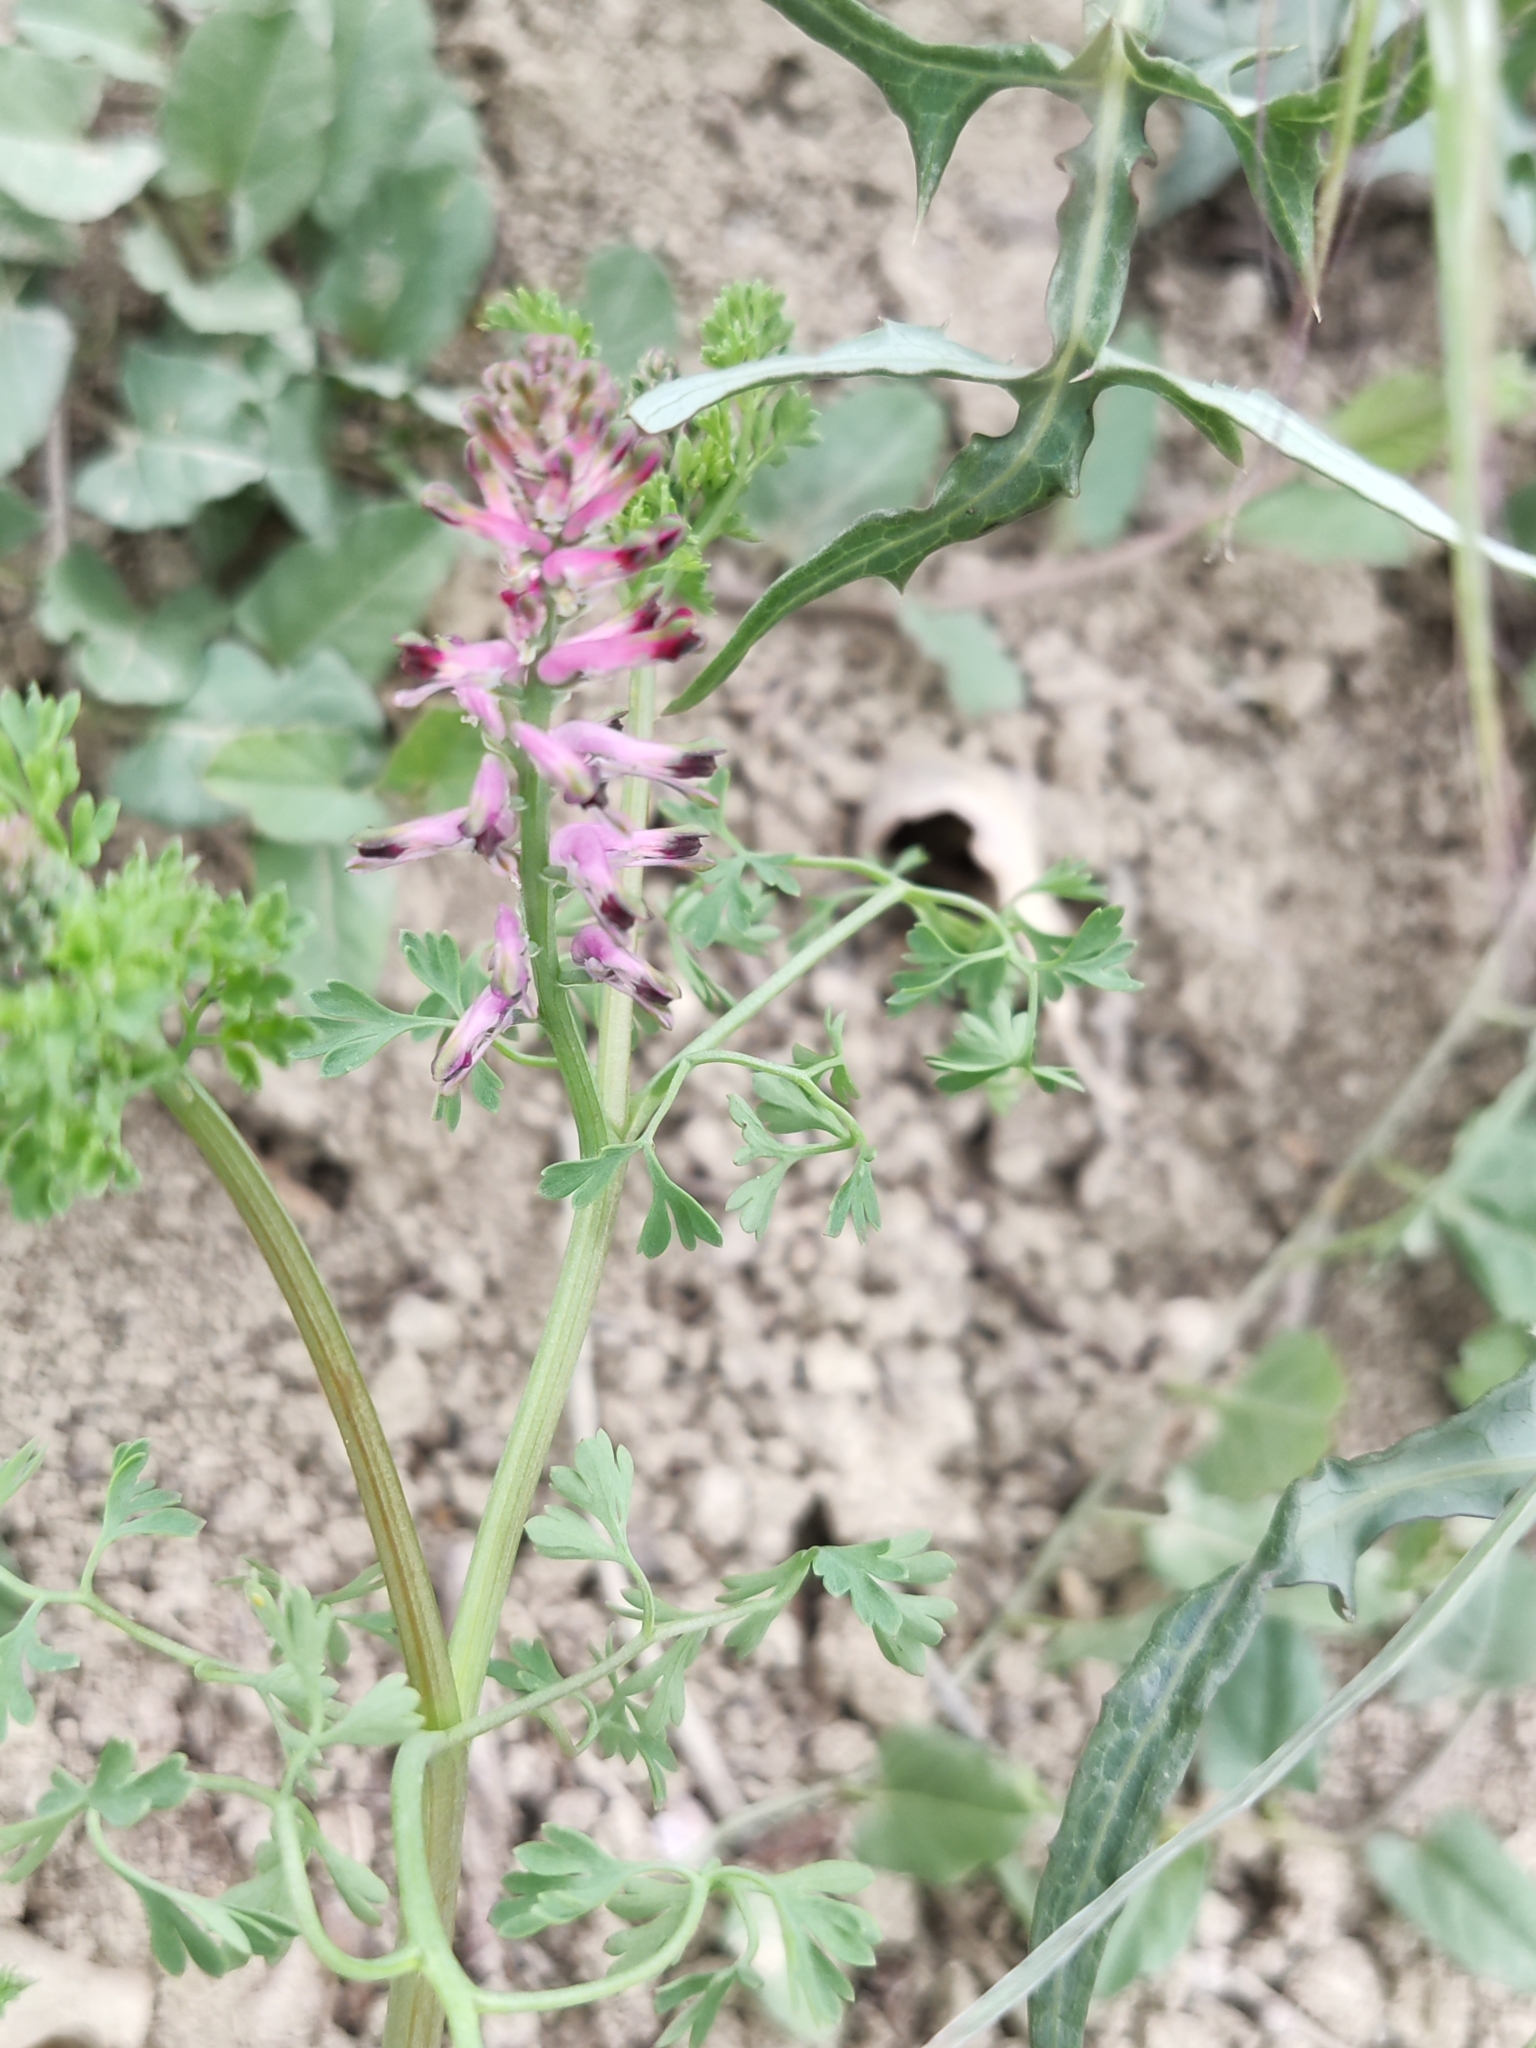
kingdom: Plantae
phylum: Tracheophyta
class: Magnoliopsida
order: Ranunculales
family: Papaveraceae
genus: Fumaria
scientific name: Fumaria officinalis
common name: Common fumitory
